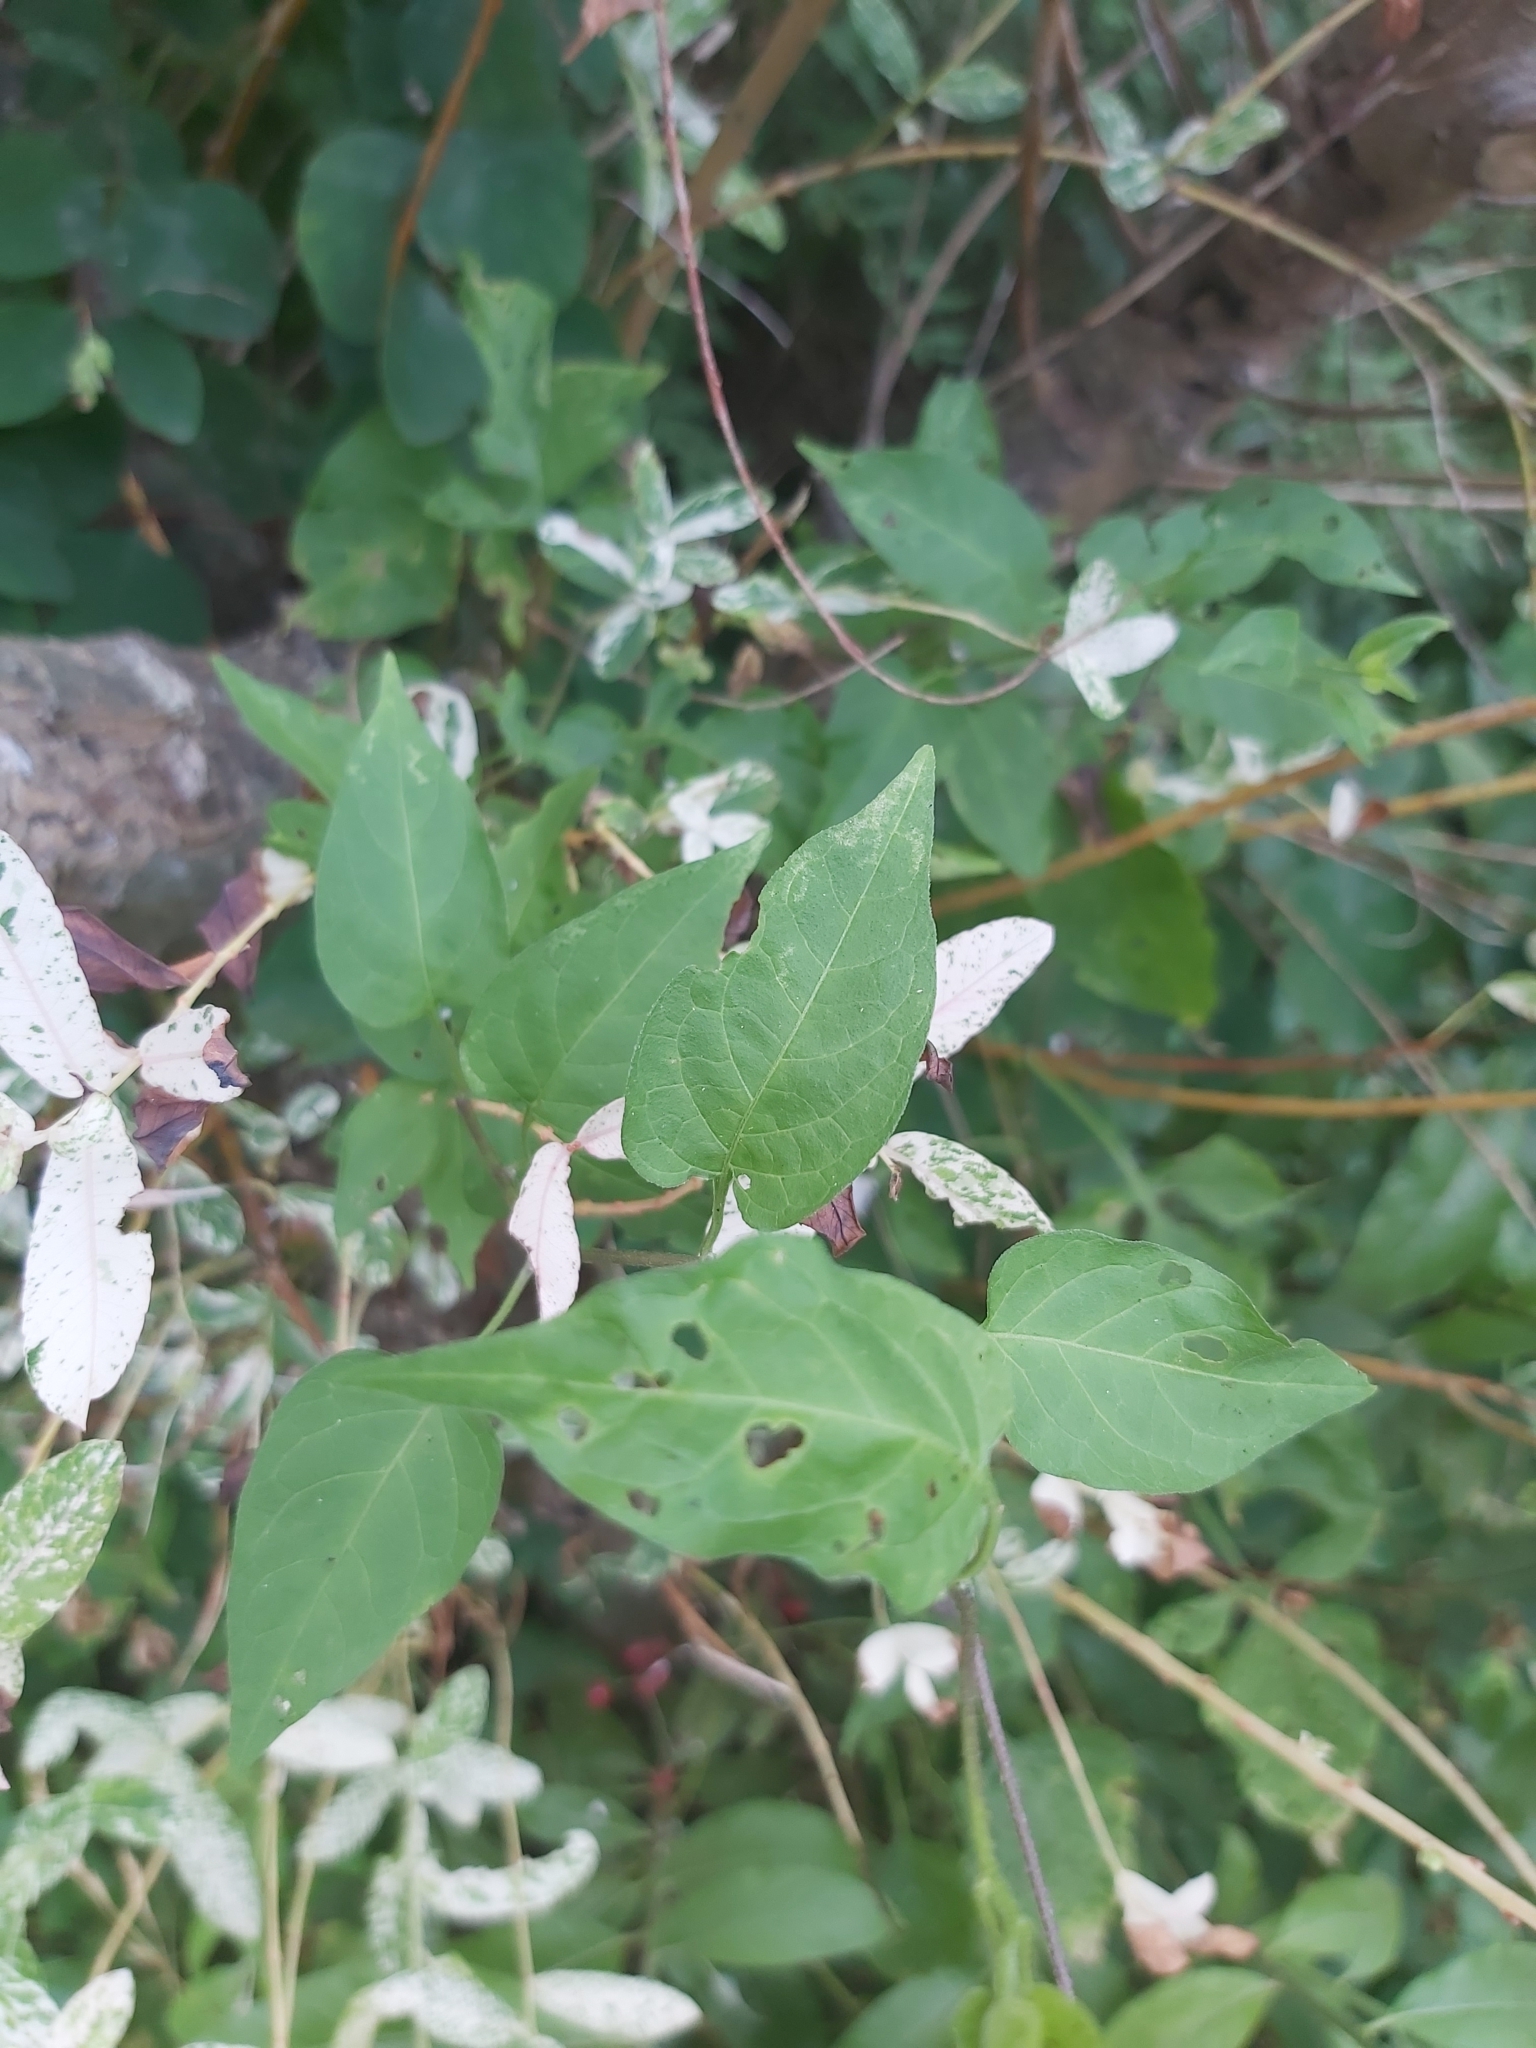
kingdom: Plantae
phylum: Tracheophyta
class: Magnoliopsida
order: Solanales
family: Solanaceae
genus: Solanum
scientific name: Solanum dulcamara
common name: Climbing nightshade
